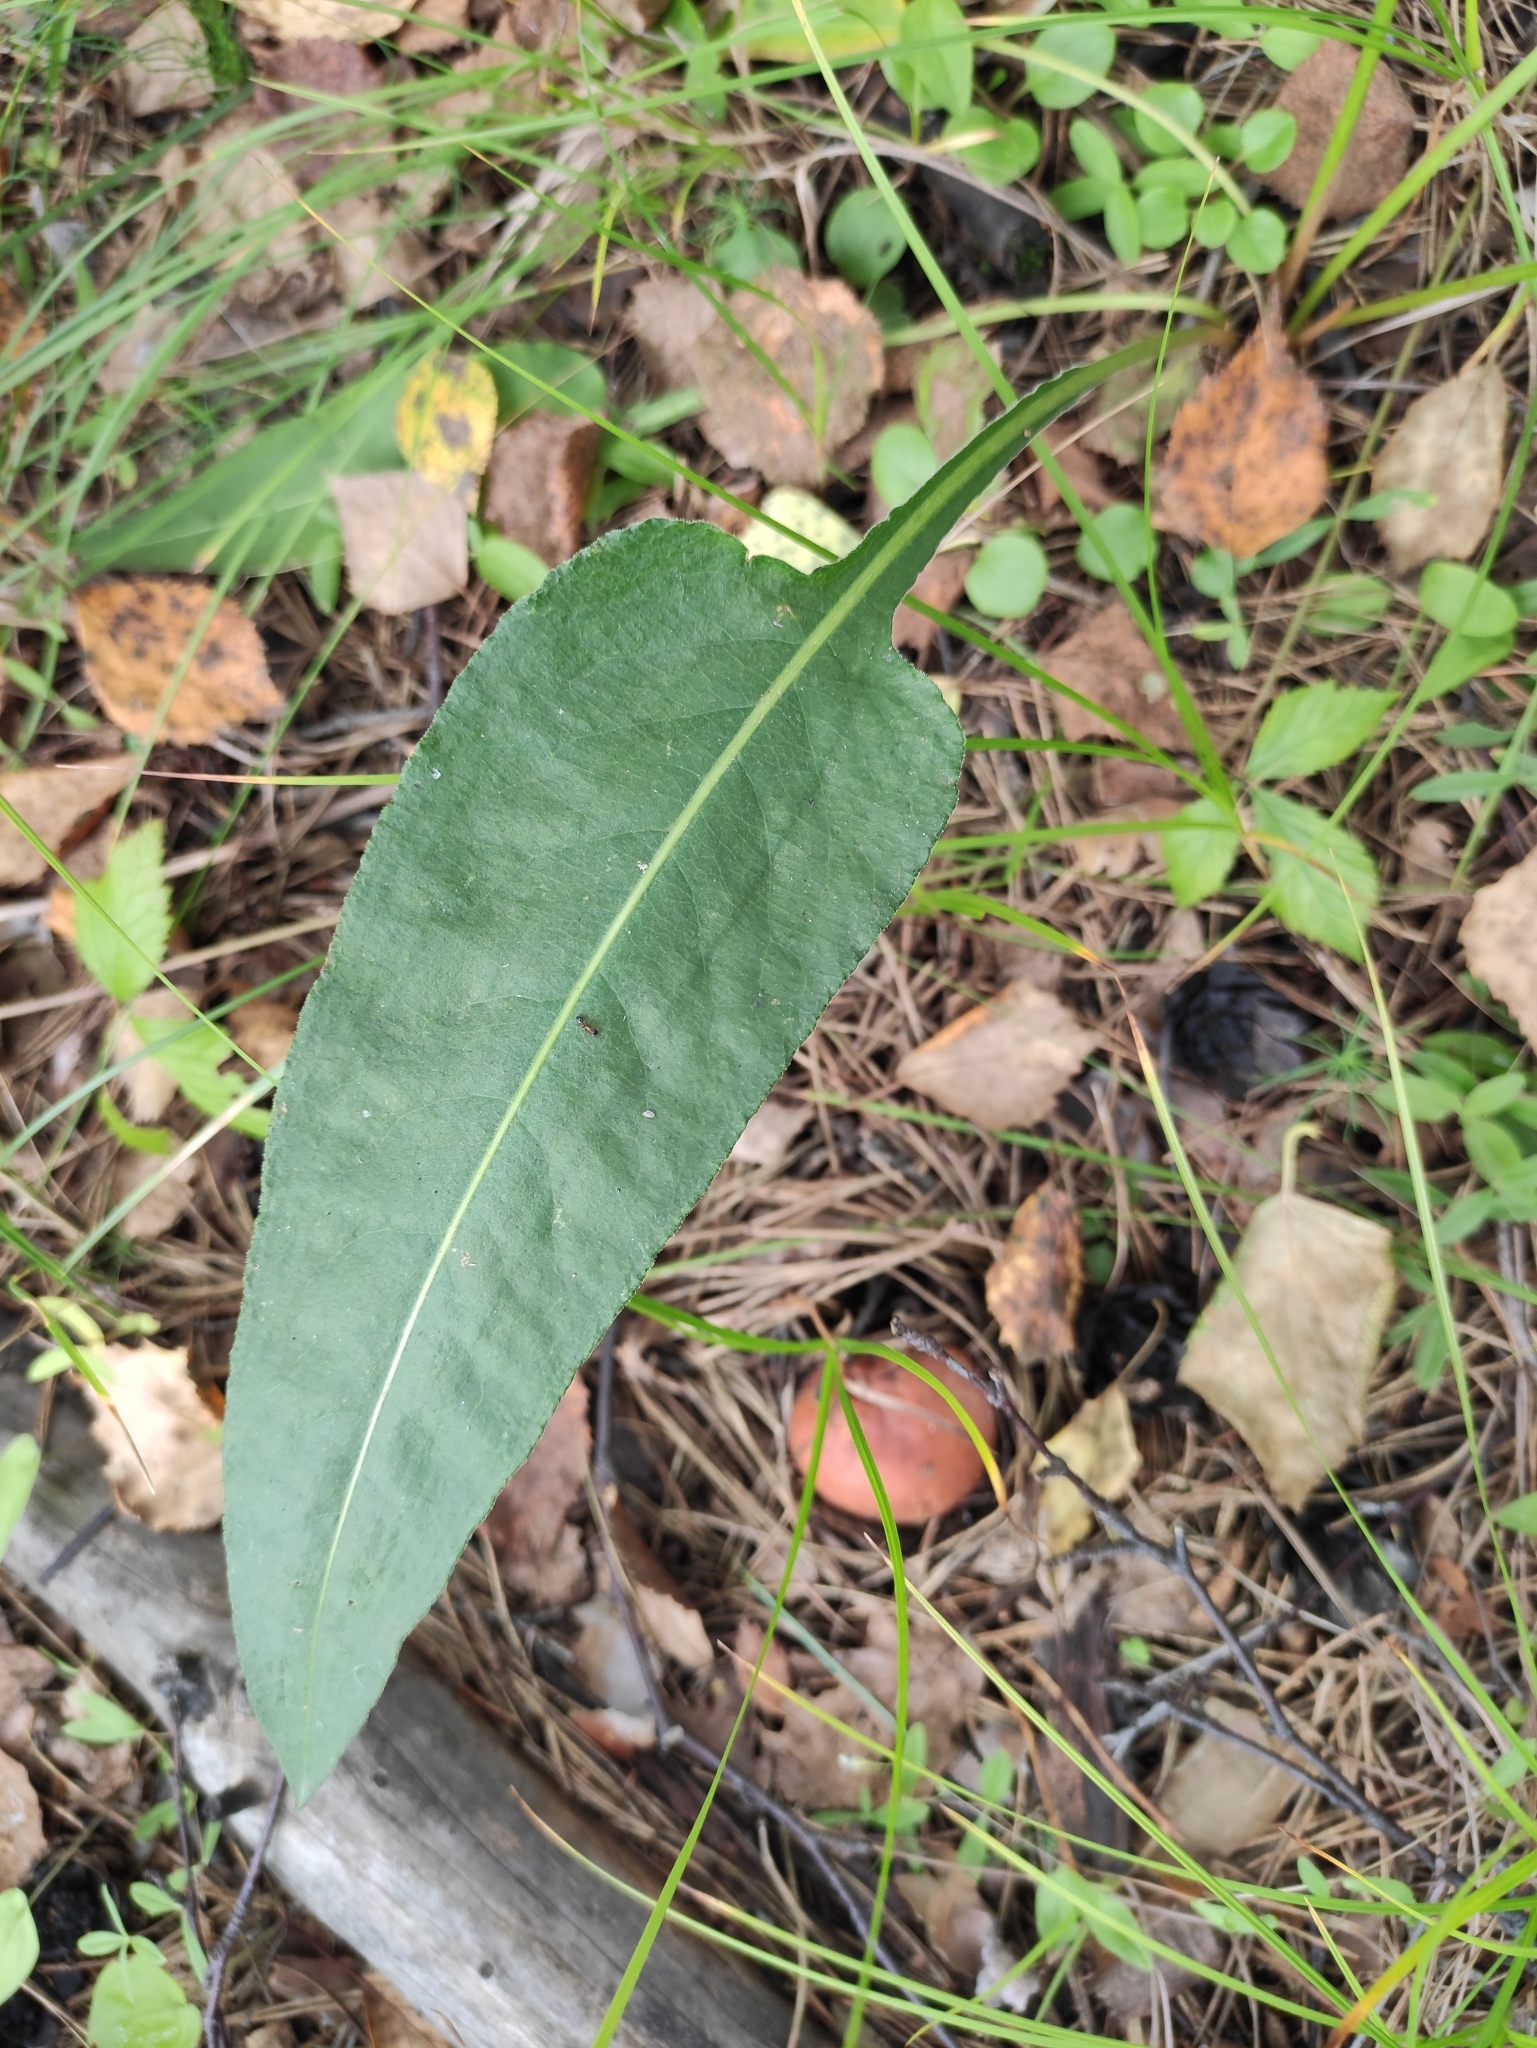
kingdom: Plantae
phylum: Tracheophyta
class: Magnoliopsida
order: Caryophyllales
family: Polygonaceae
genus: Bistorta
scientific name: Bistorta officinalis
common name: Common bistort
